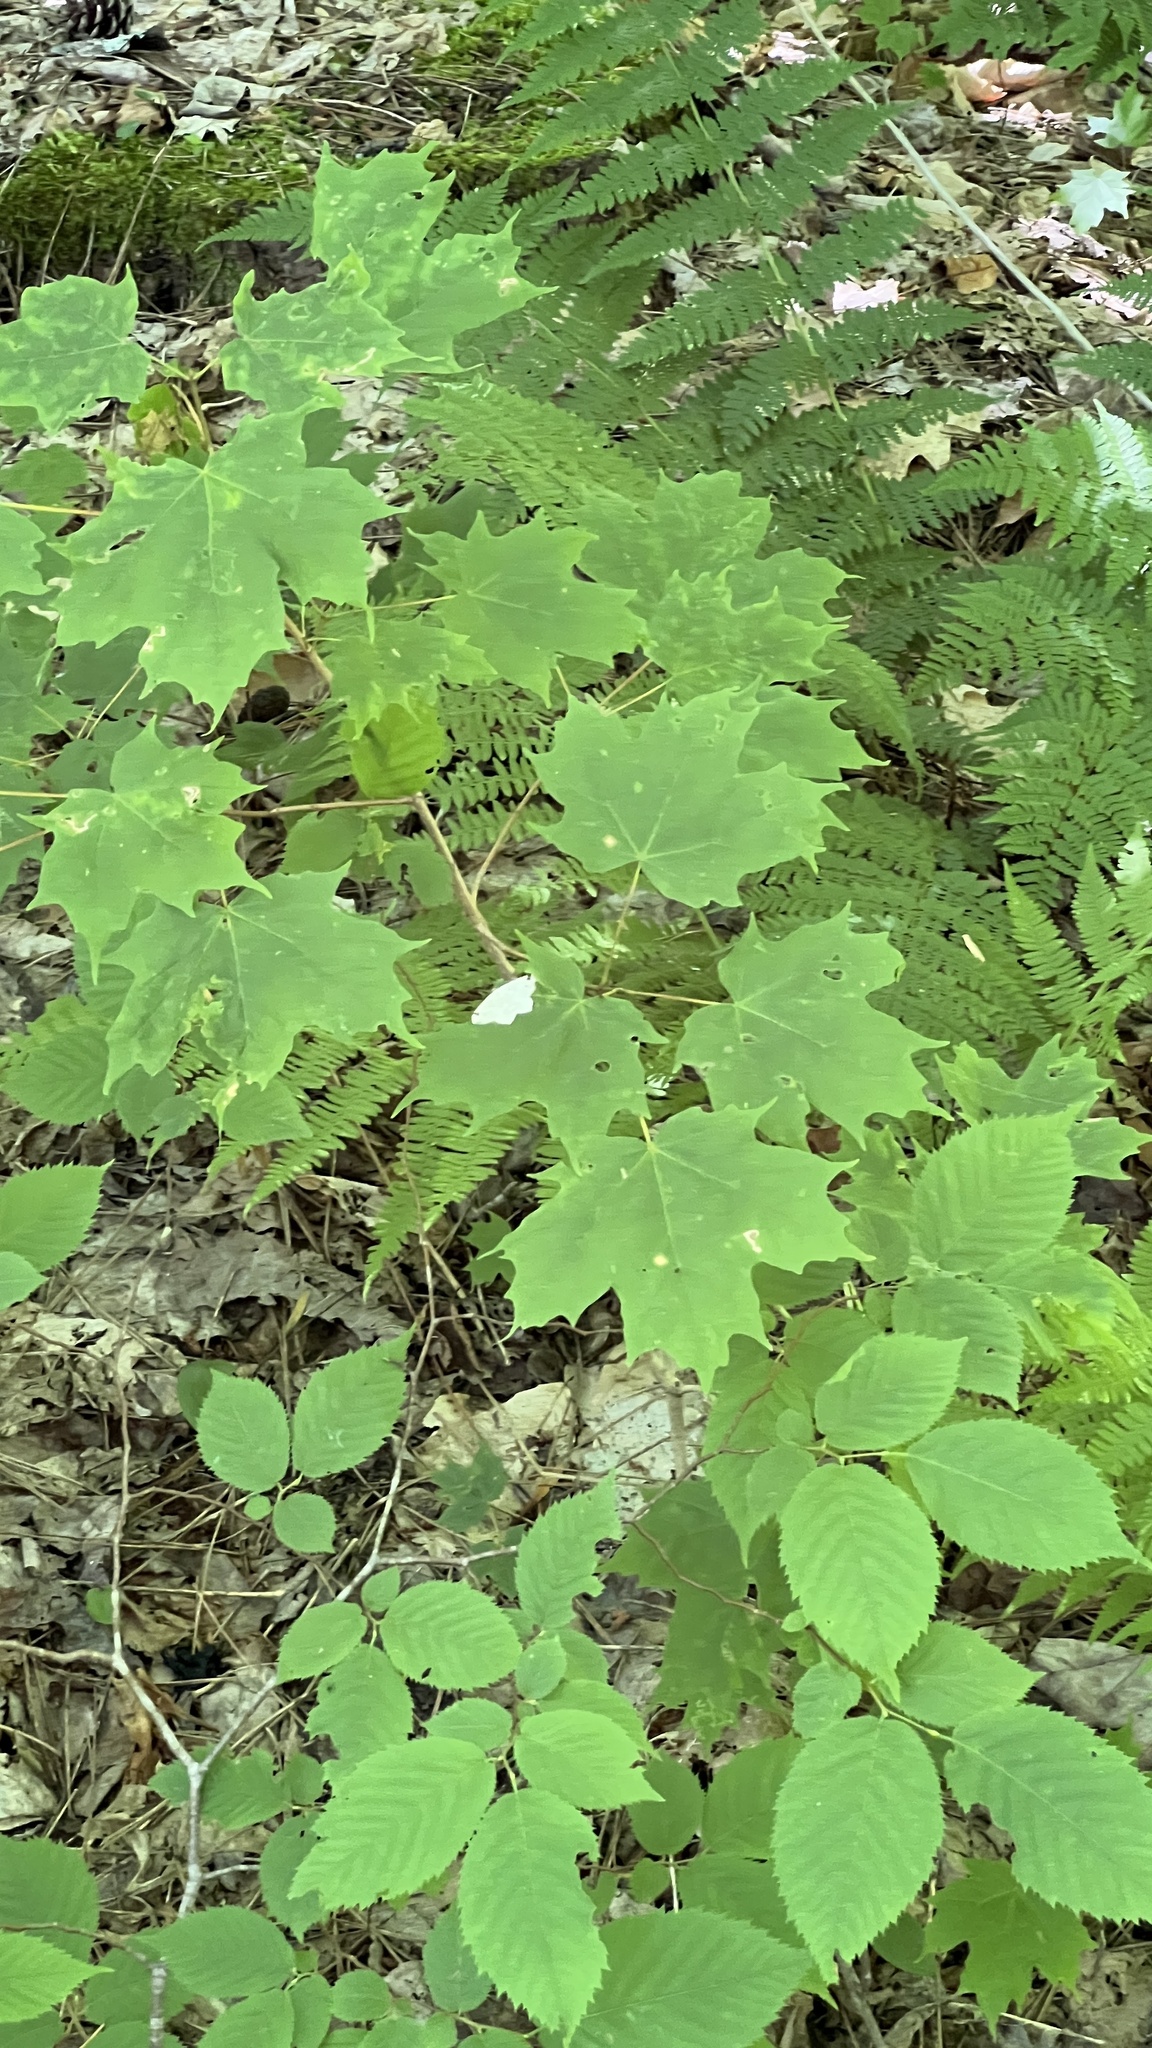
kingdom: Plantae
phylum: Tracheophyta
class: Magnoliopsida
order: Sapindales
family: Sapindaceae
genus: Acer
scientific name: Acer saccharum
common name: Sugar maple
